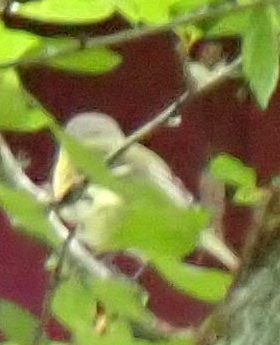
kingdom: Animalia
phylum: Chordata
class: Aves
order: Passeriformes
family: Vireonidae
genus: Vireo
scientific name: Vireo griseus
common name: White-eyed vireo
